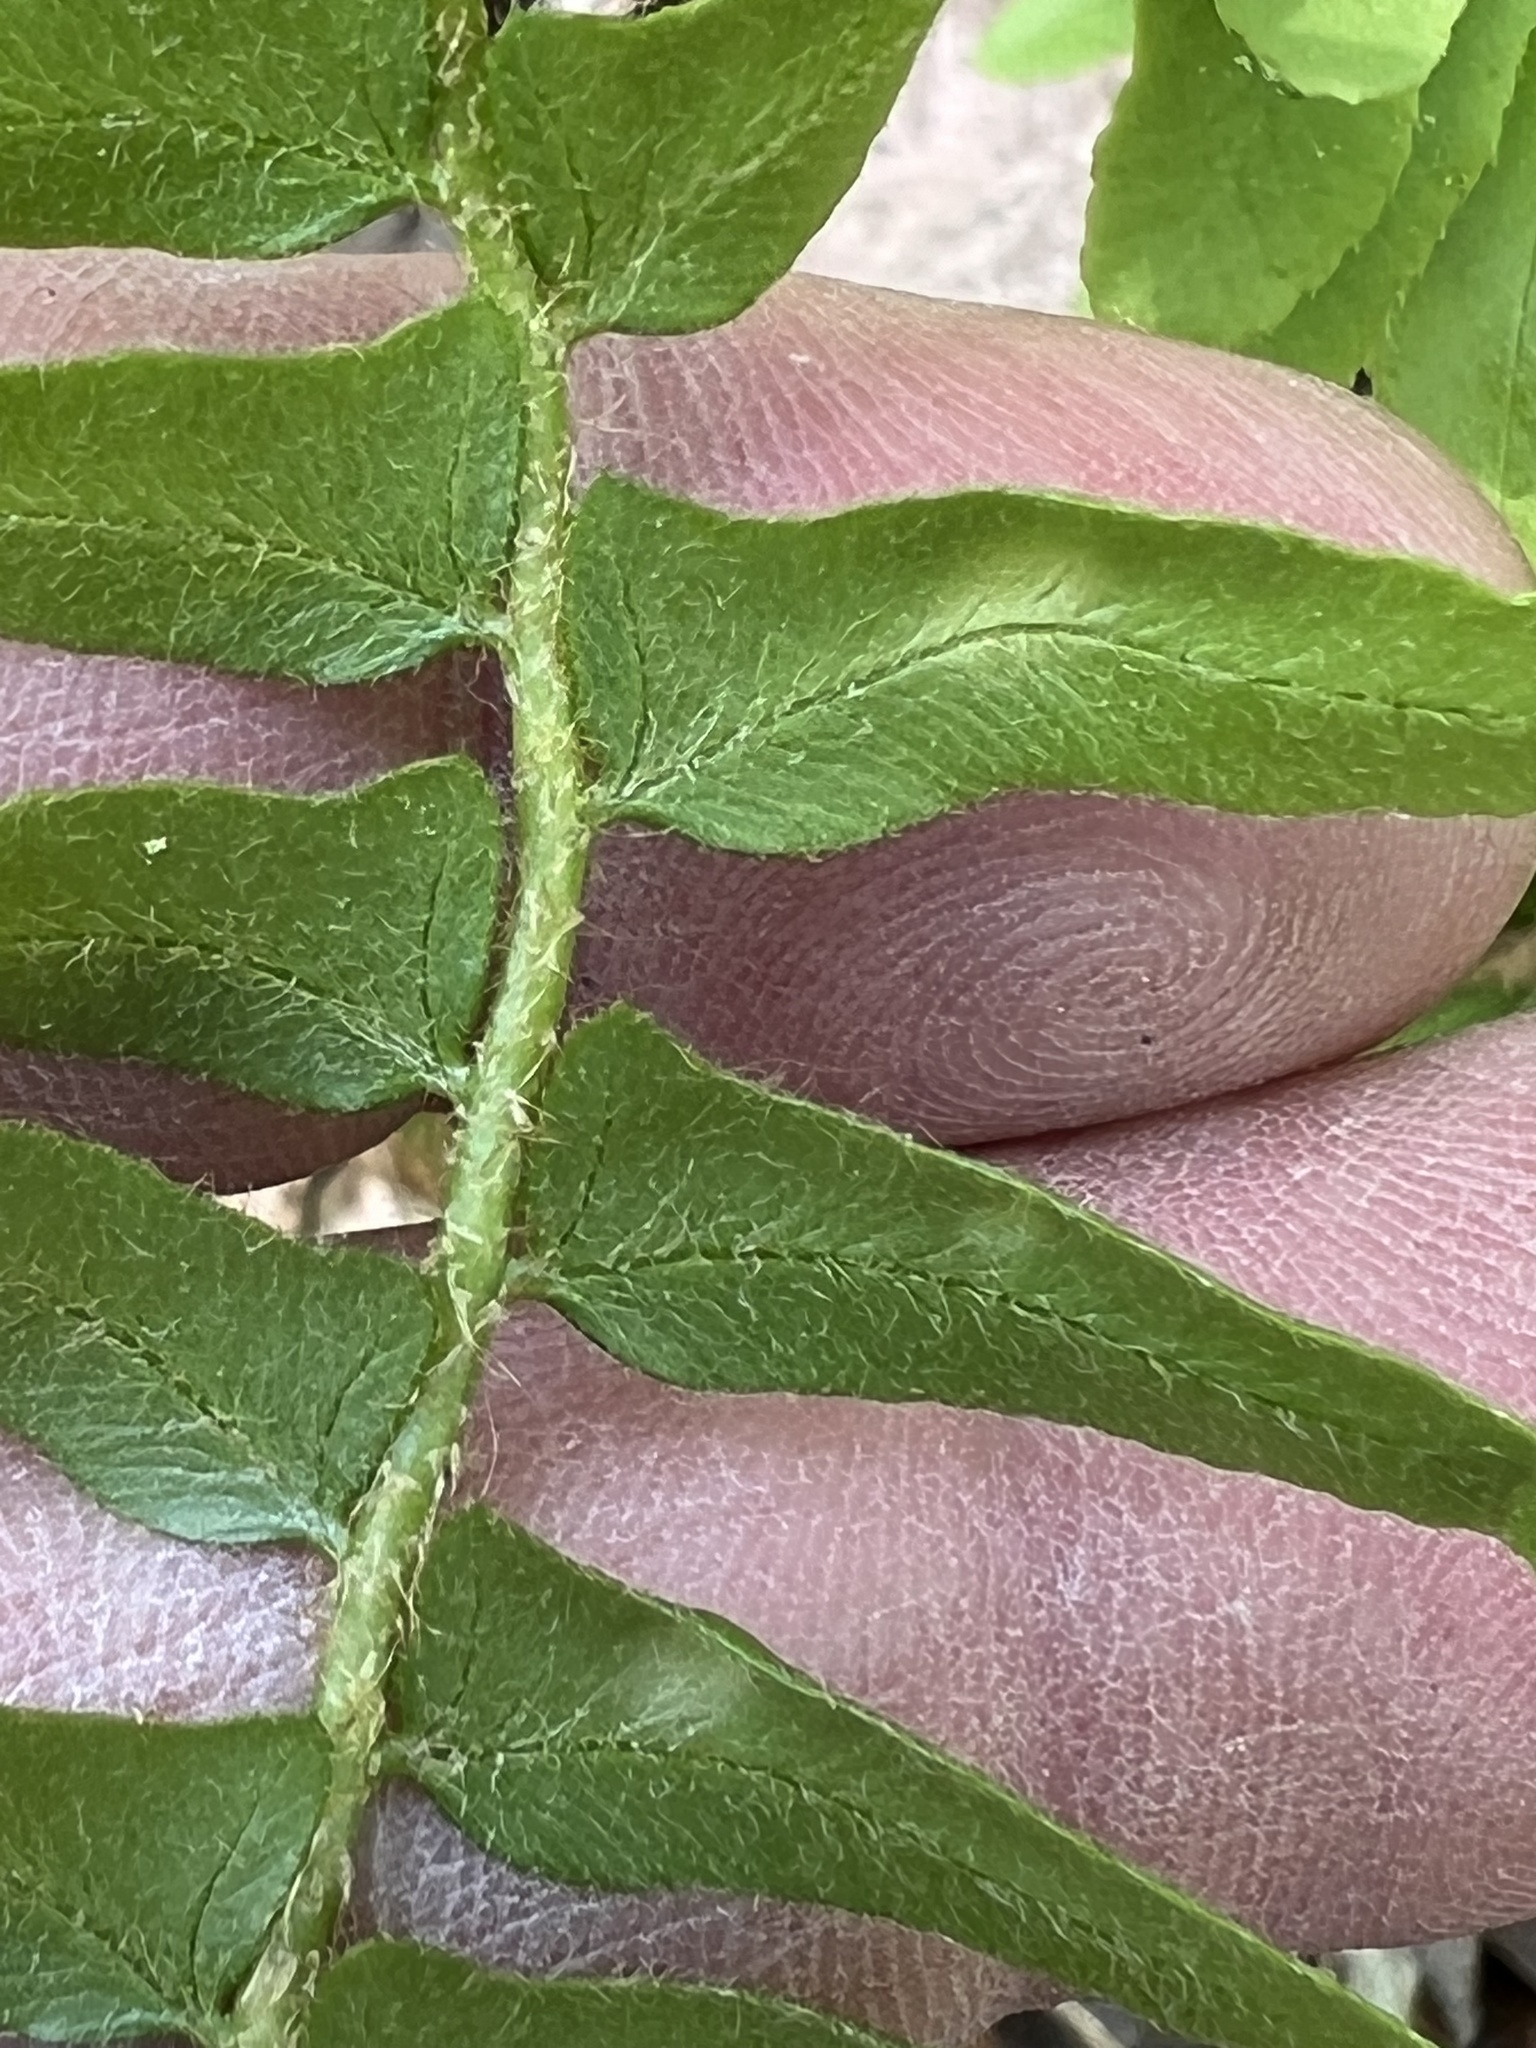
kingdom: Fungi
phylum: Ascomycota
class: Taphrinomycetes
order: Taphrinales
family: Taphrinaceae
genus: Taphrina
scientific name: Taphrina polystichi
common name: Christmas fern leaf curl
